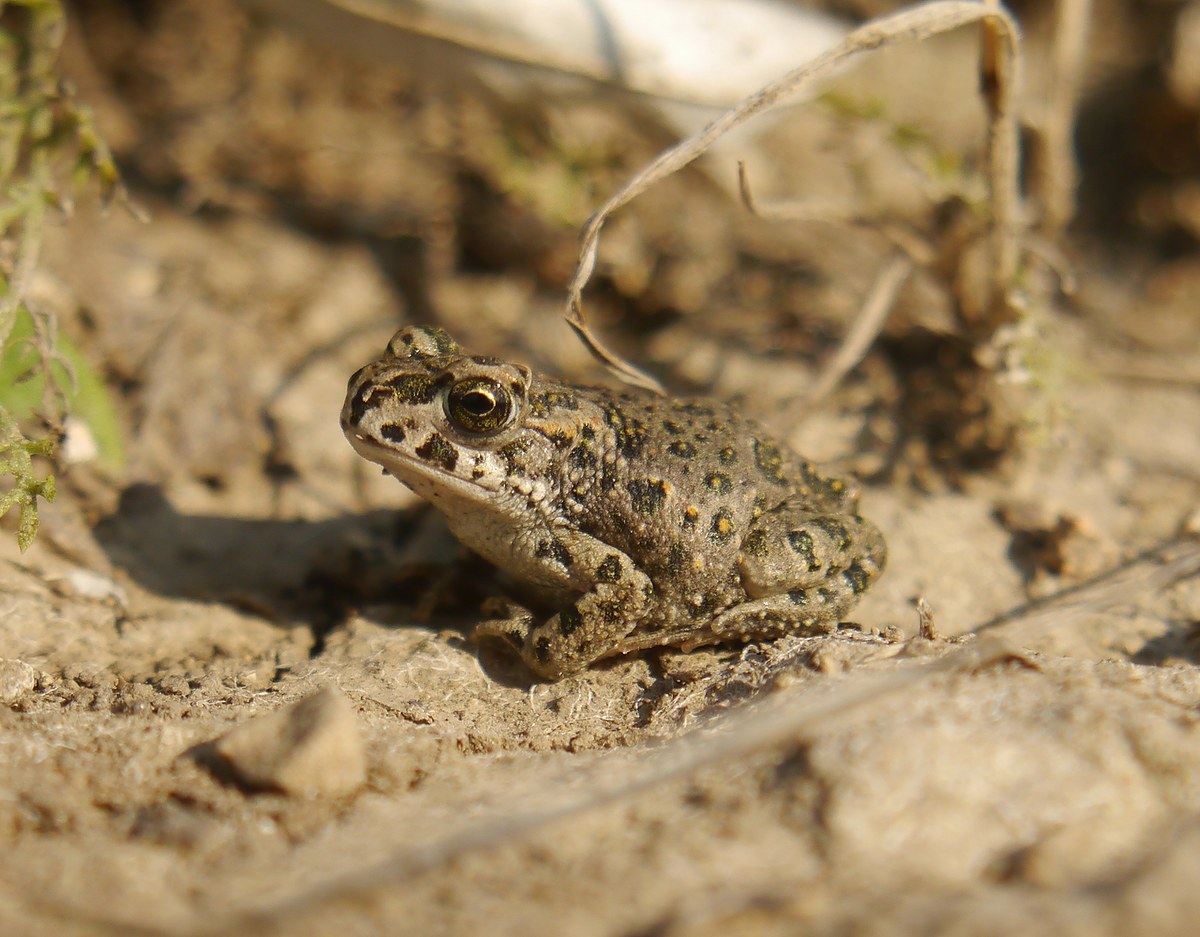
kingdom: Animalia
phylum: Chordata
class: Amphibia
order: Anura
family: Bufonidae
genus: Bufotes
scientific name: Bufotes viridis
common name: European green toad
